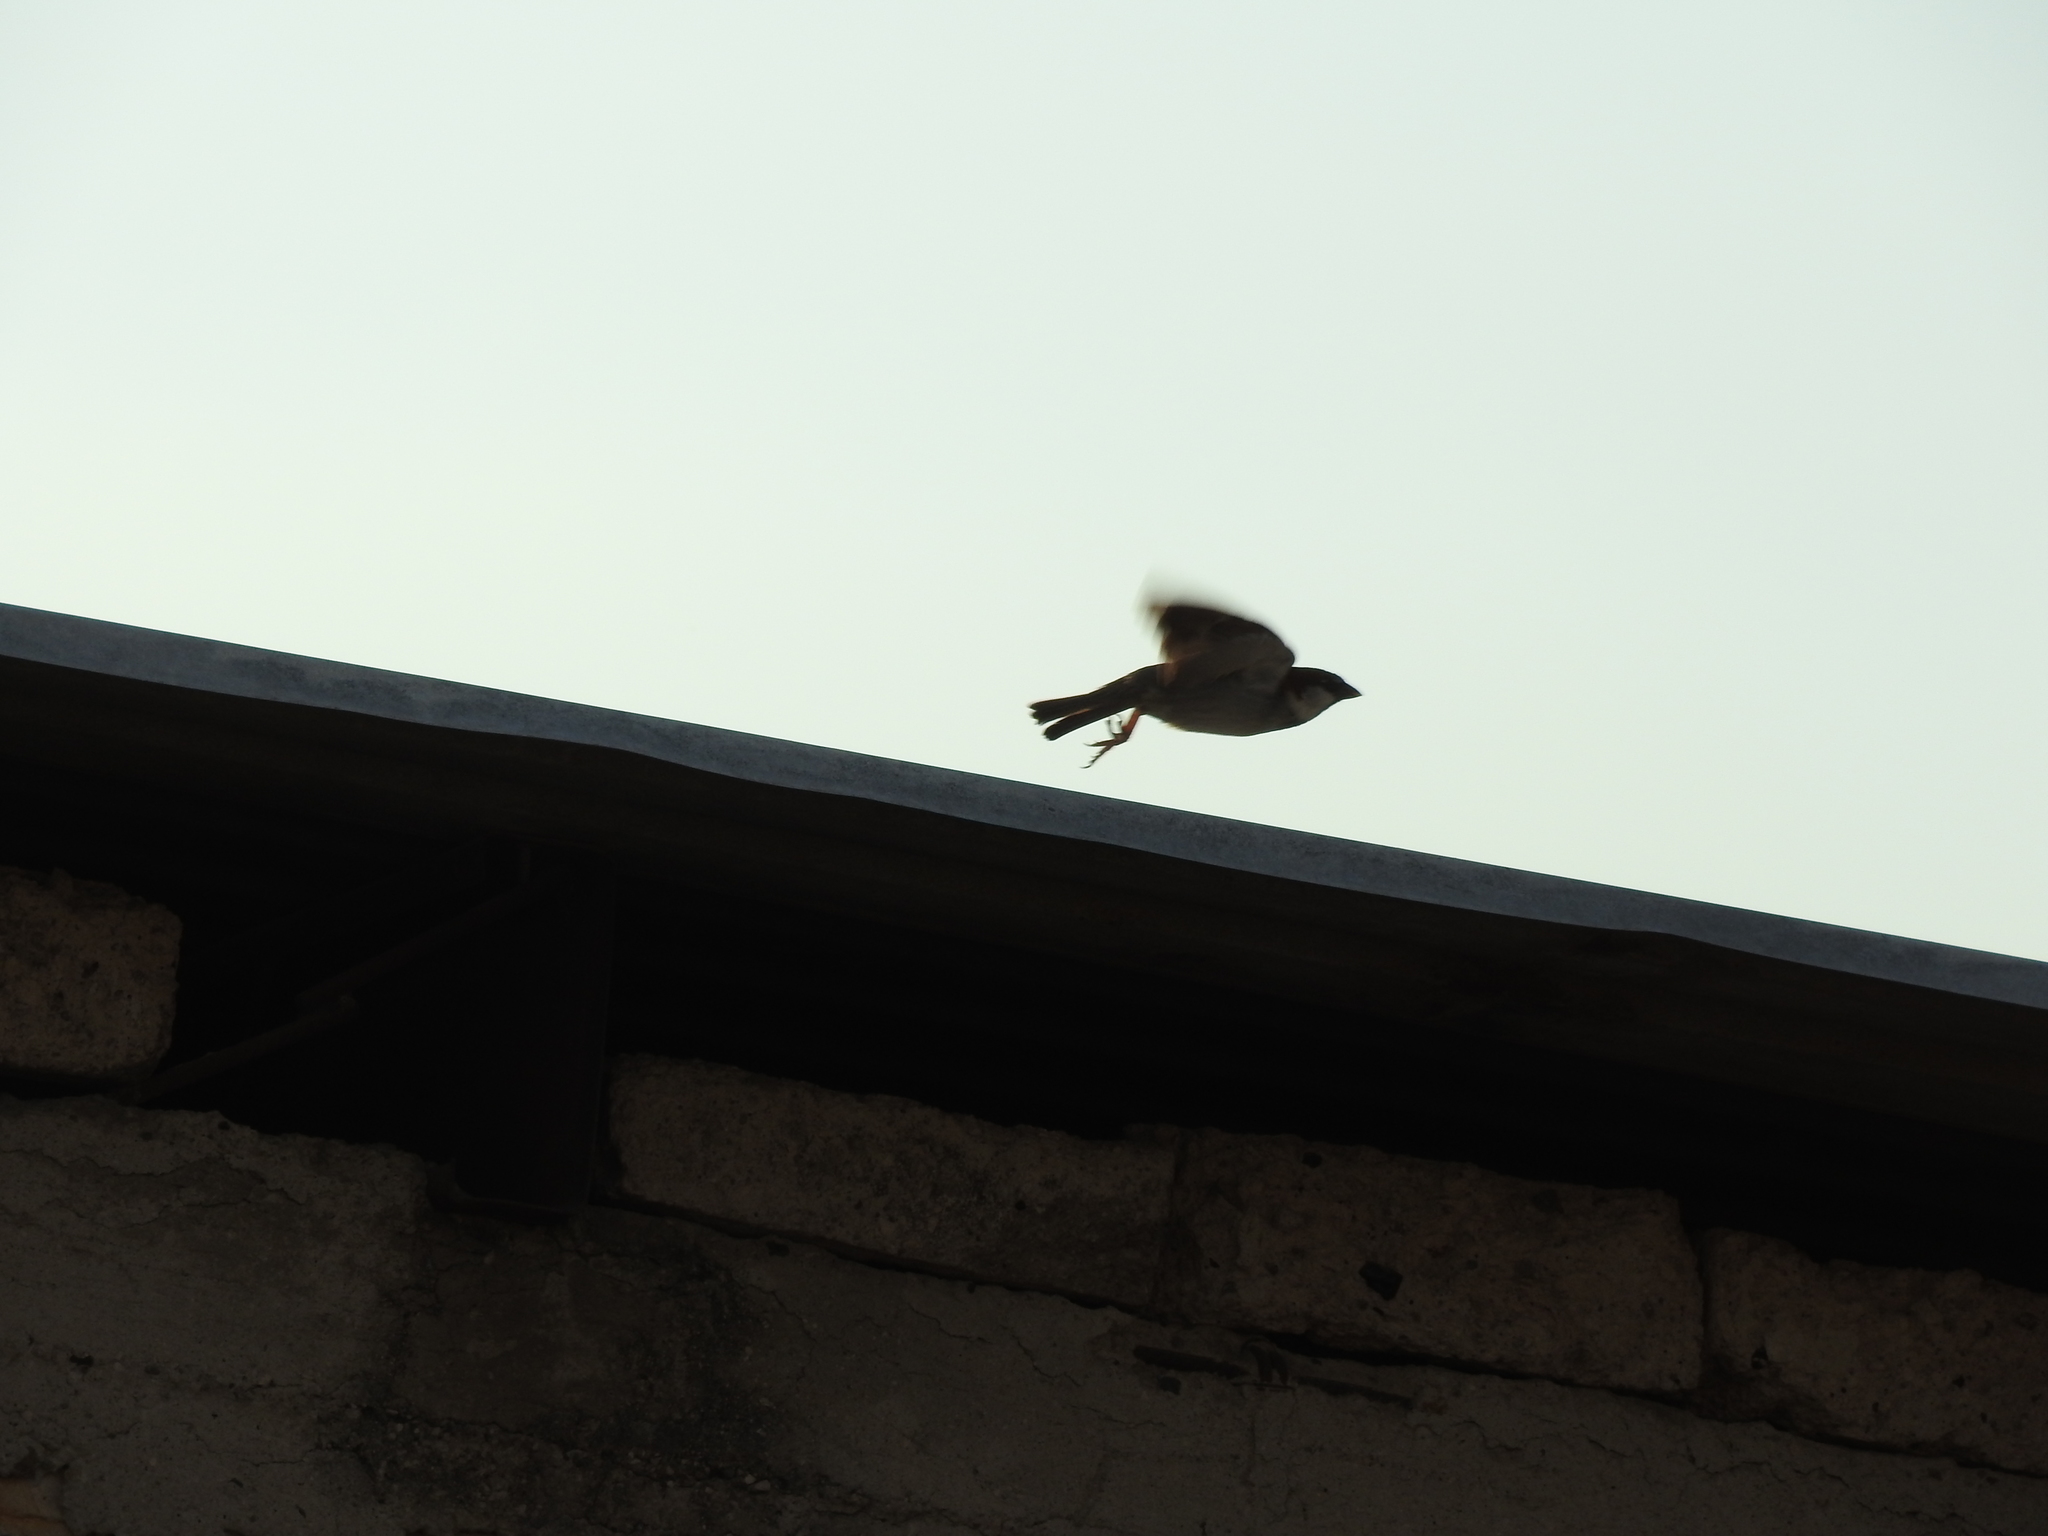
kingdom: Animalia
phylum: Chordata
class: Aves
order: Passeriformes
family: Passeridae
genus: Passer
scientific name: Passer domesticus
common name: House sparrow
